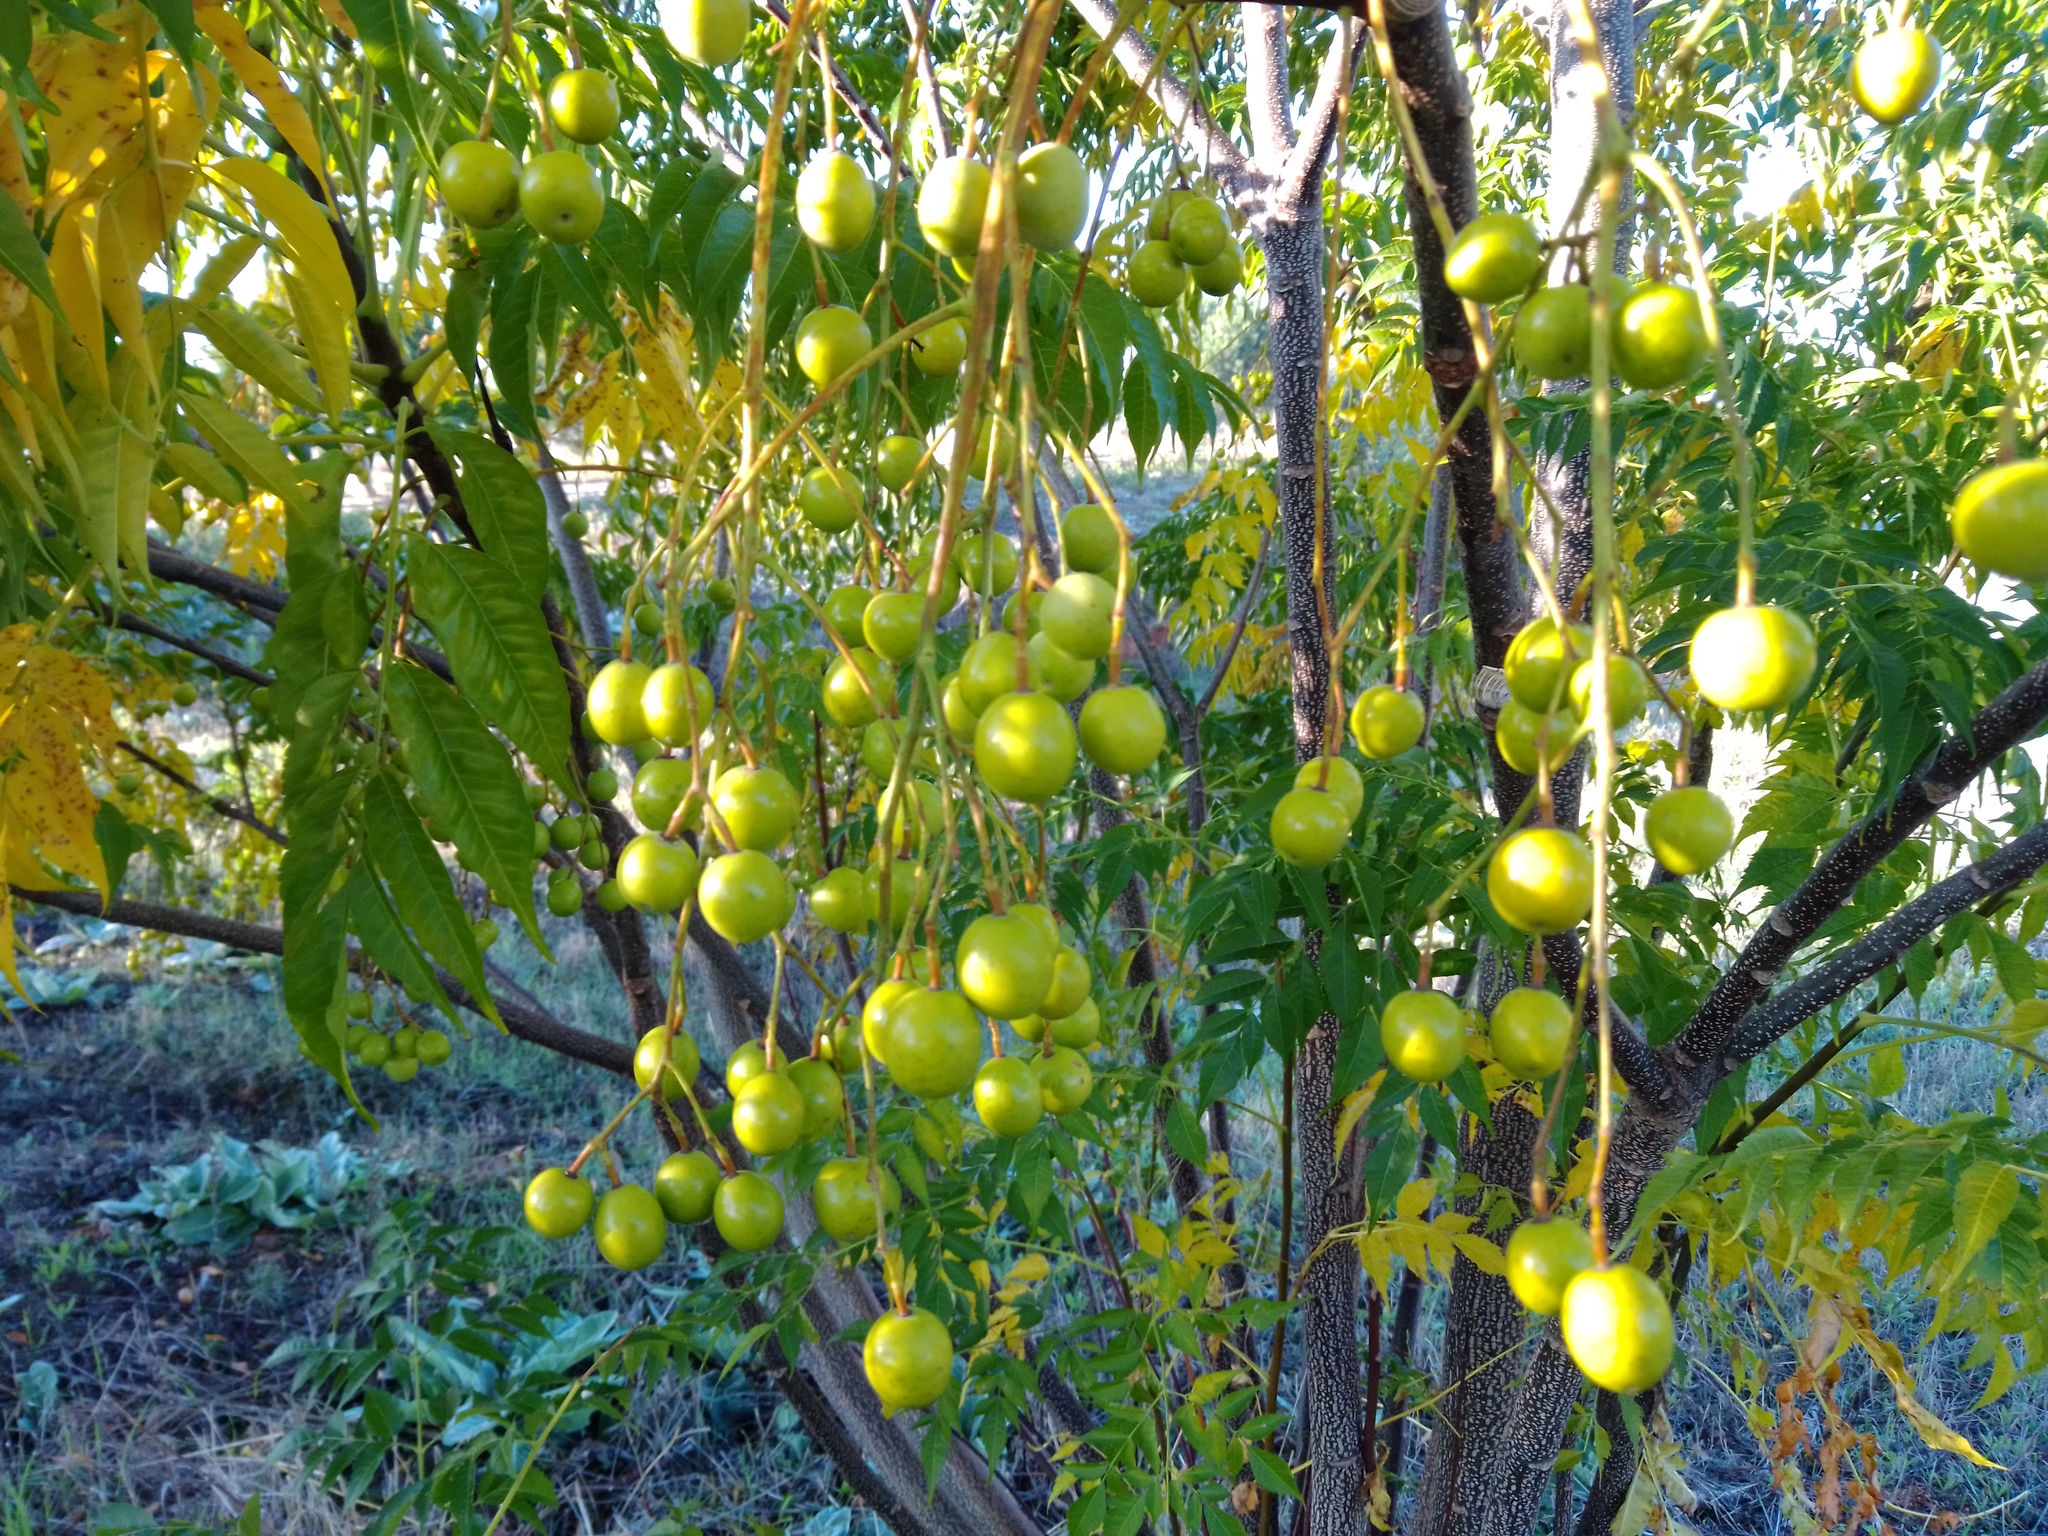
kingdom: Plantae
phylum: Tracheophyta
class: Magnoliopsida
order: Sapindales
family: Meliaceae
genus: Melia
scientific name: Melia azedarach
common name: Chinaberrytree
